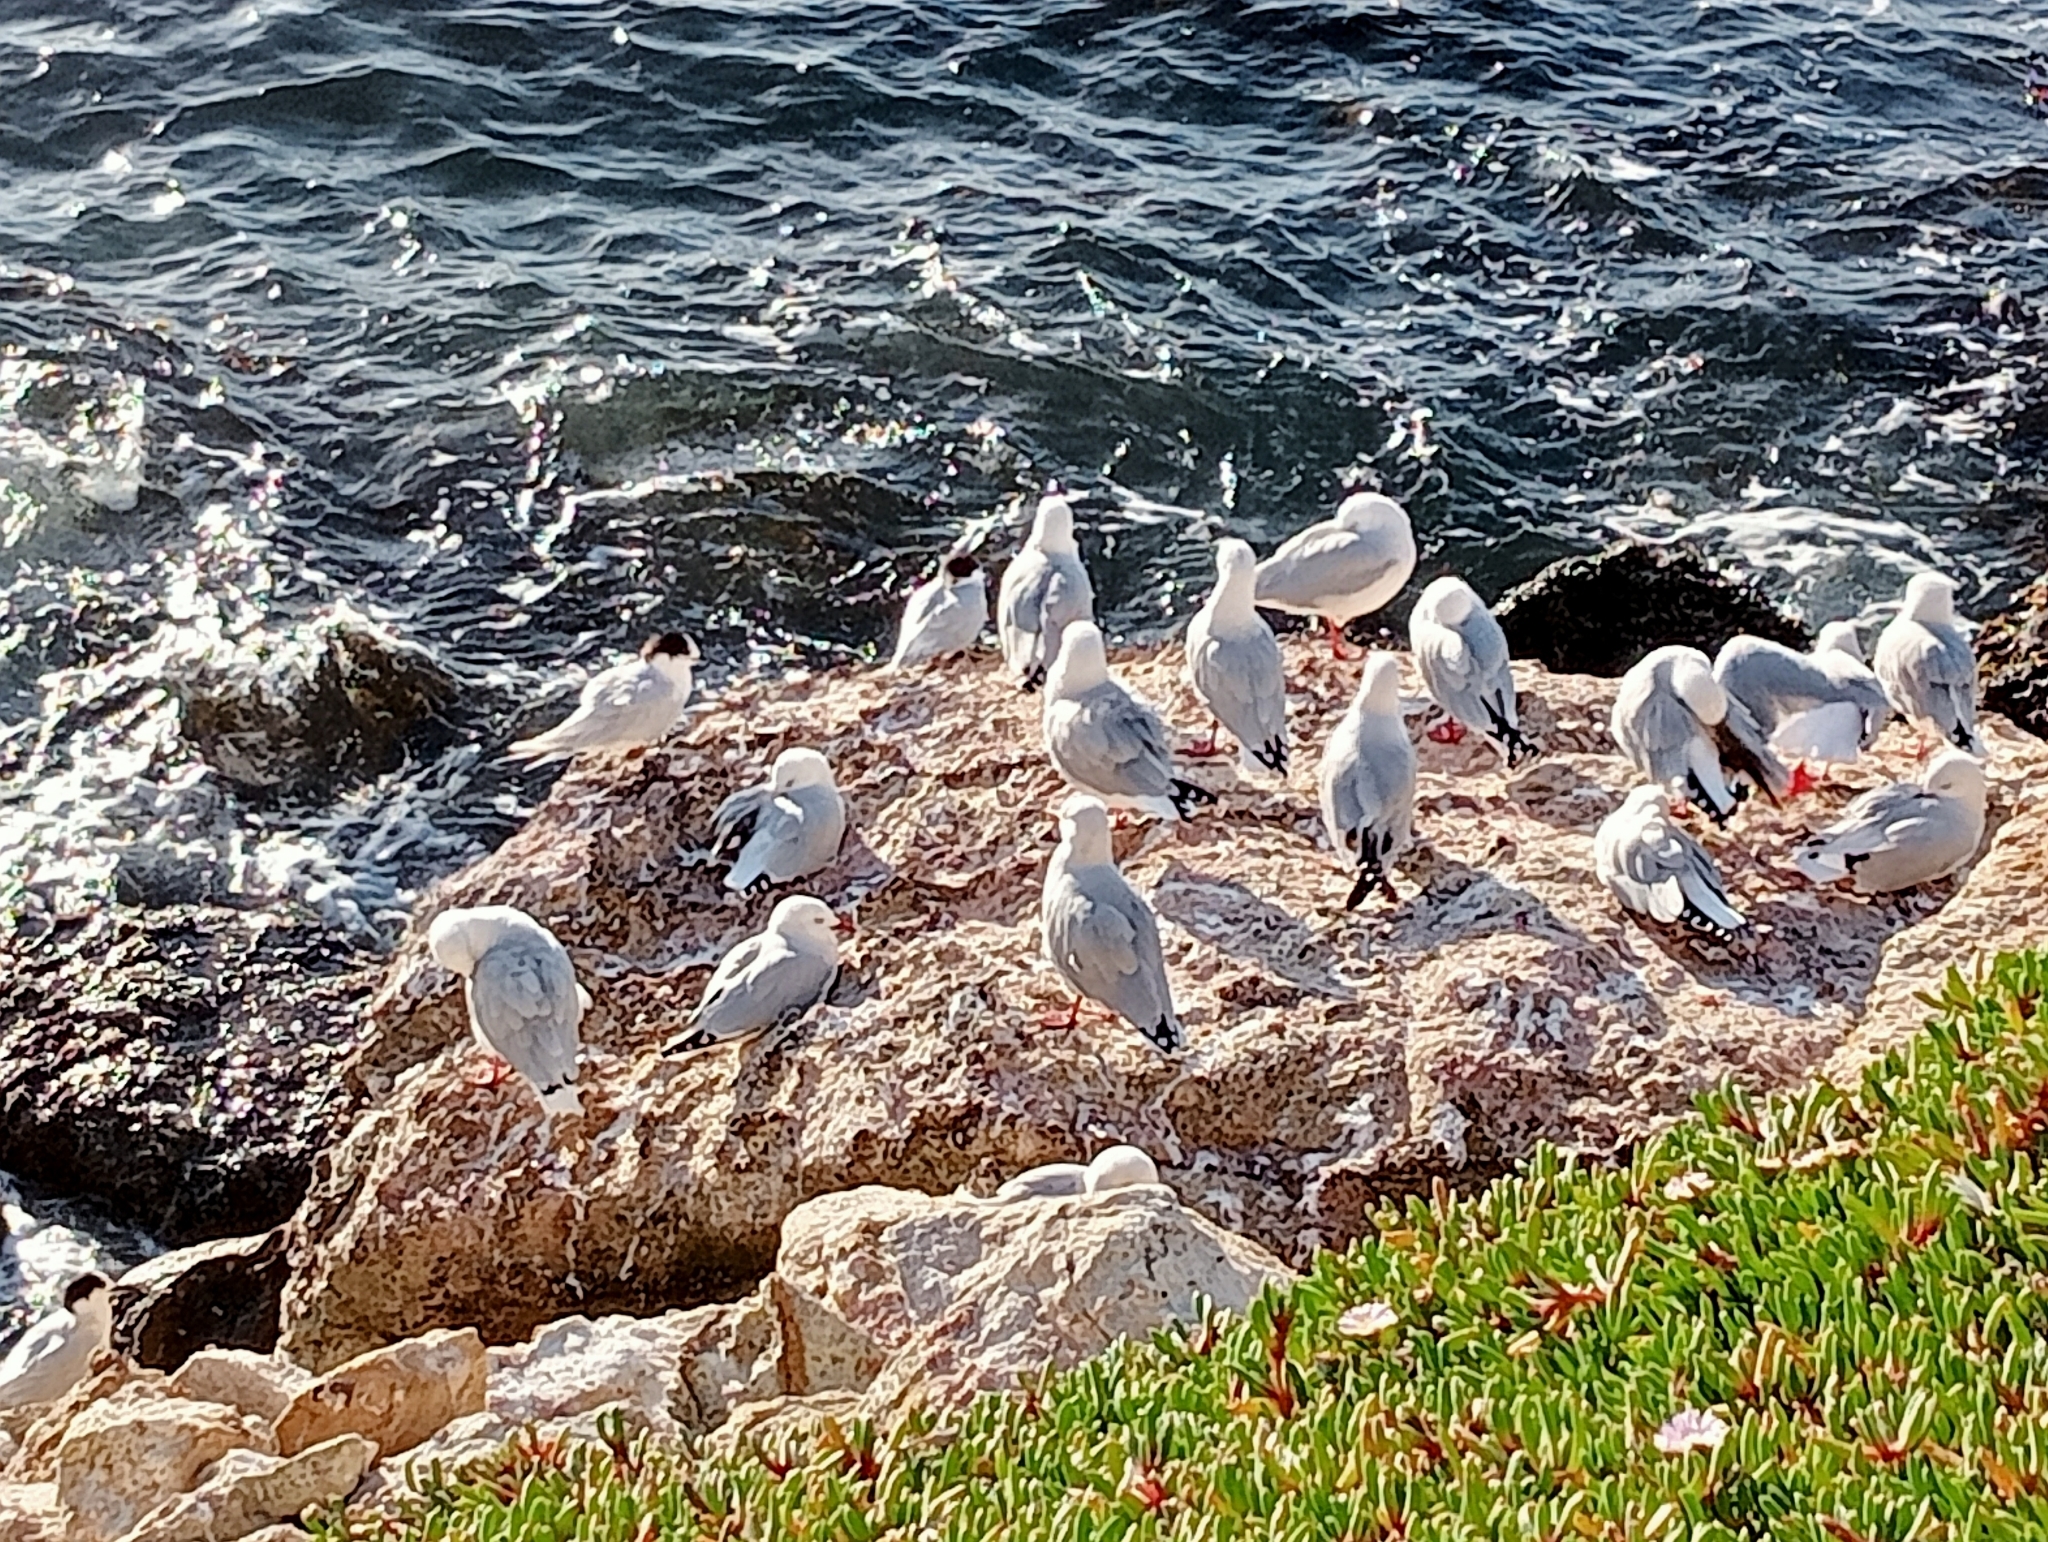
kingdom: Animalia
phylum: Chordata
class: Aves
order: Charadriiformes
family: Laridae
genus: Chroicocephalus
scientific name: Chroicocephalus novaehollandiae
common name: Silver gull
